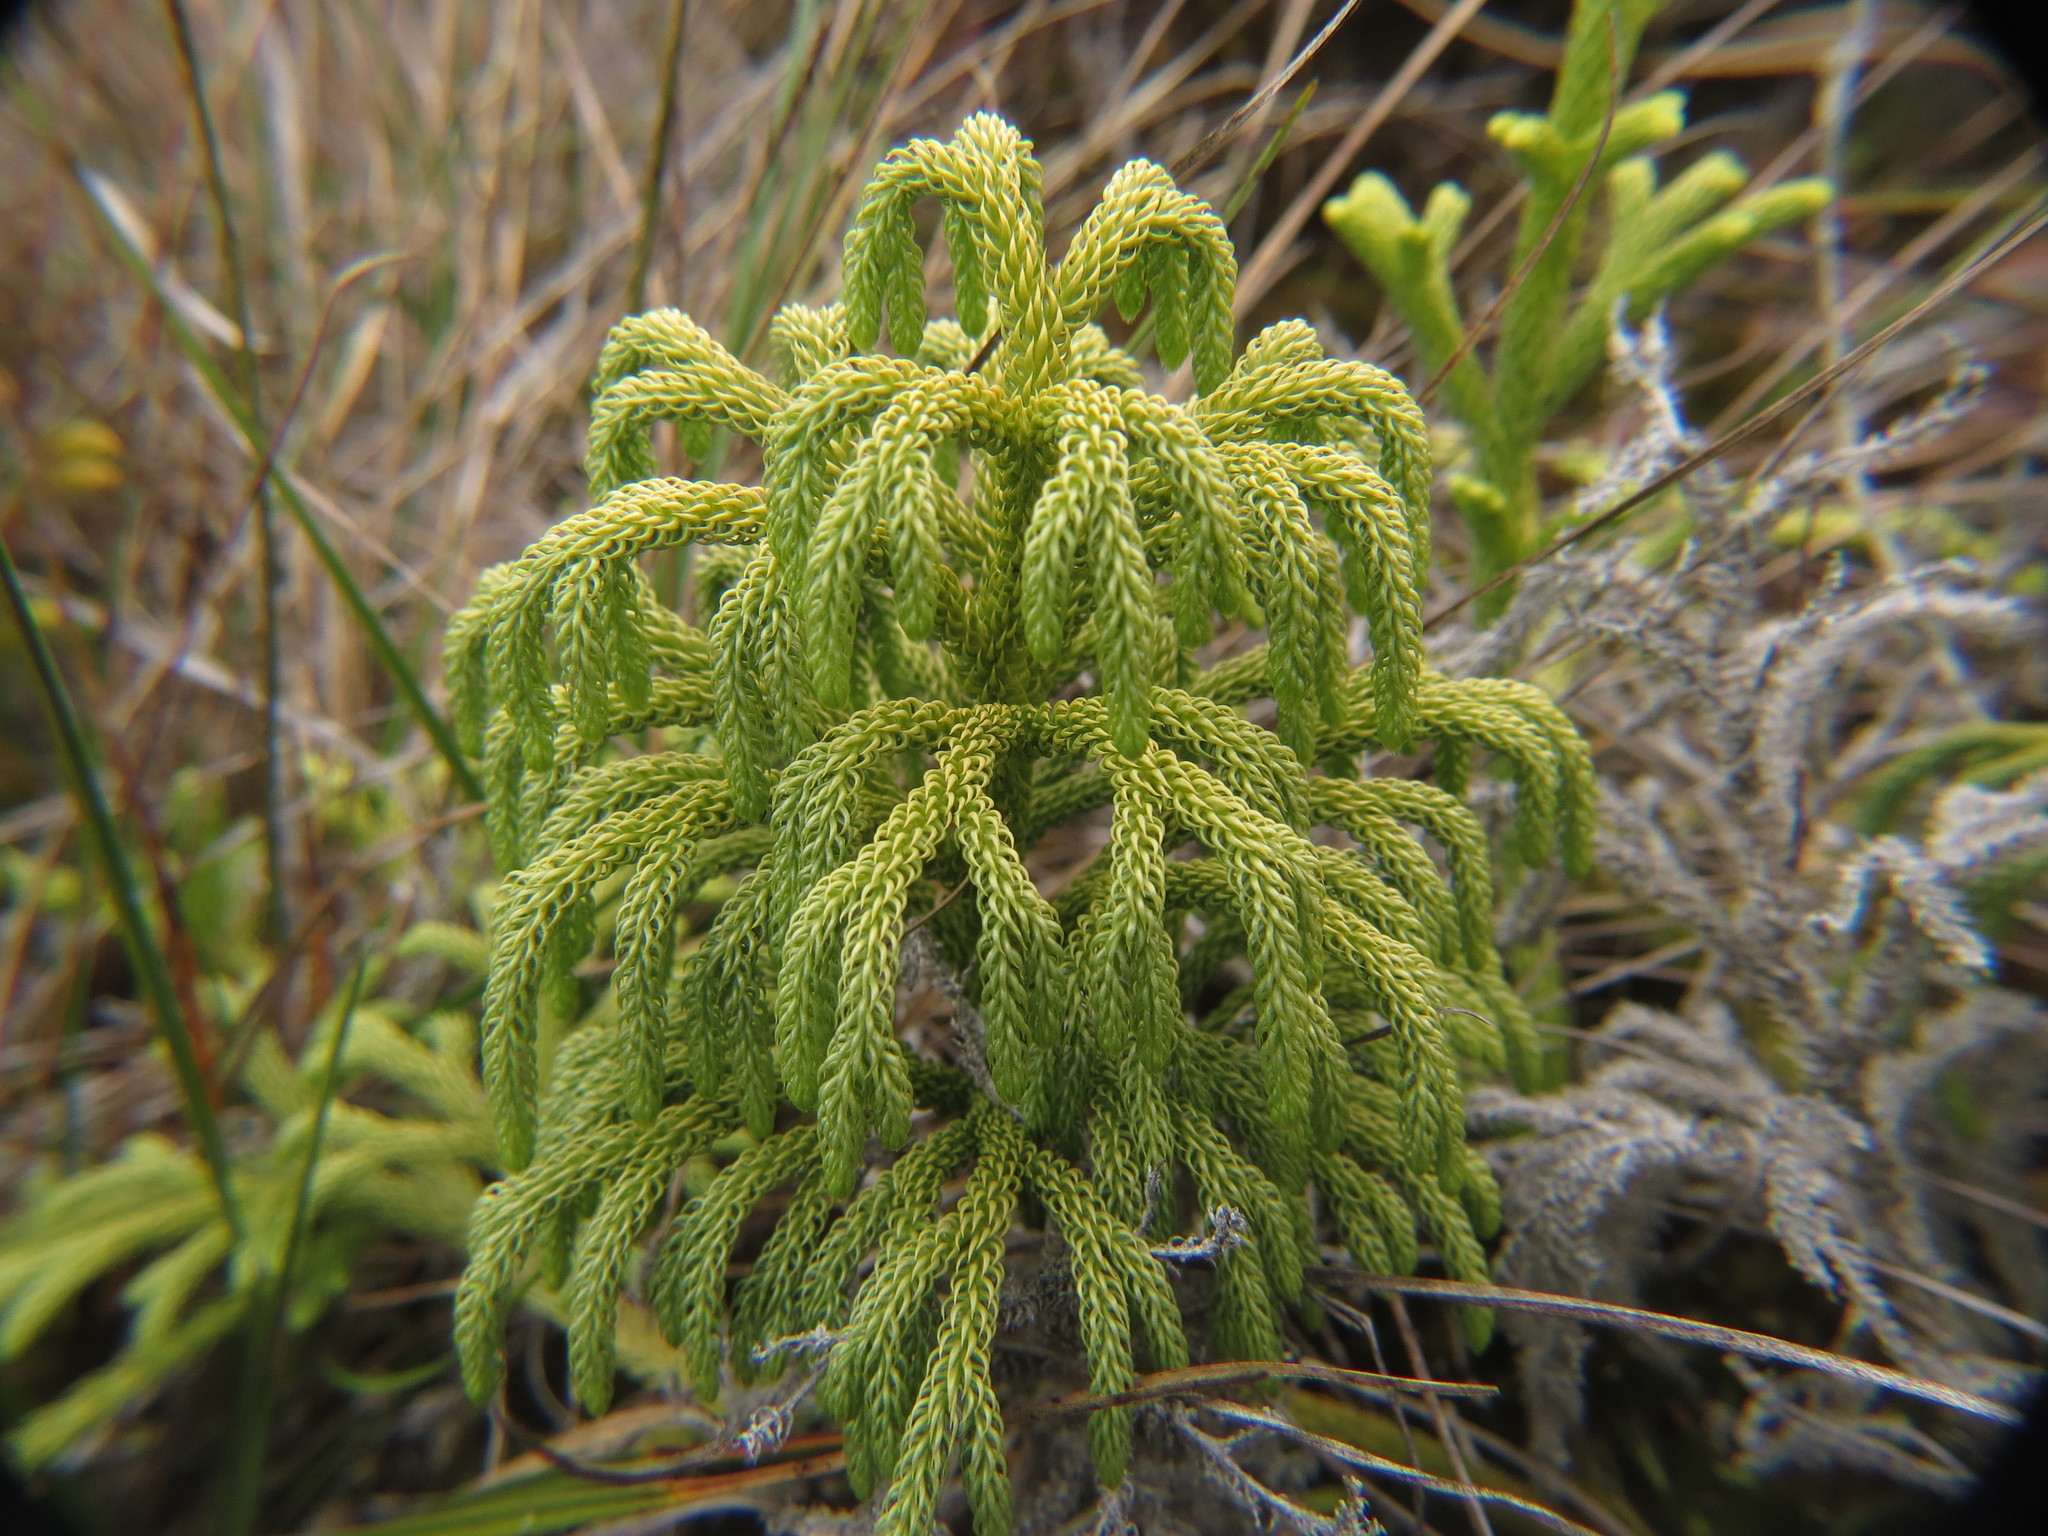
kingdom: Plantae
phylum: Tracheophyta
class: Lycopodiopsida
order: Lycopodiales
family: Lycopodiaceae
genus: Palhinhaea
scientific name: Palhinhaea cernua
